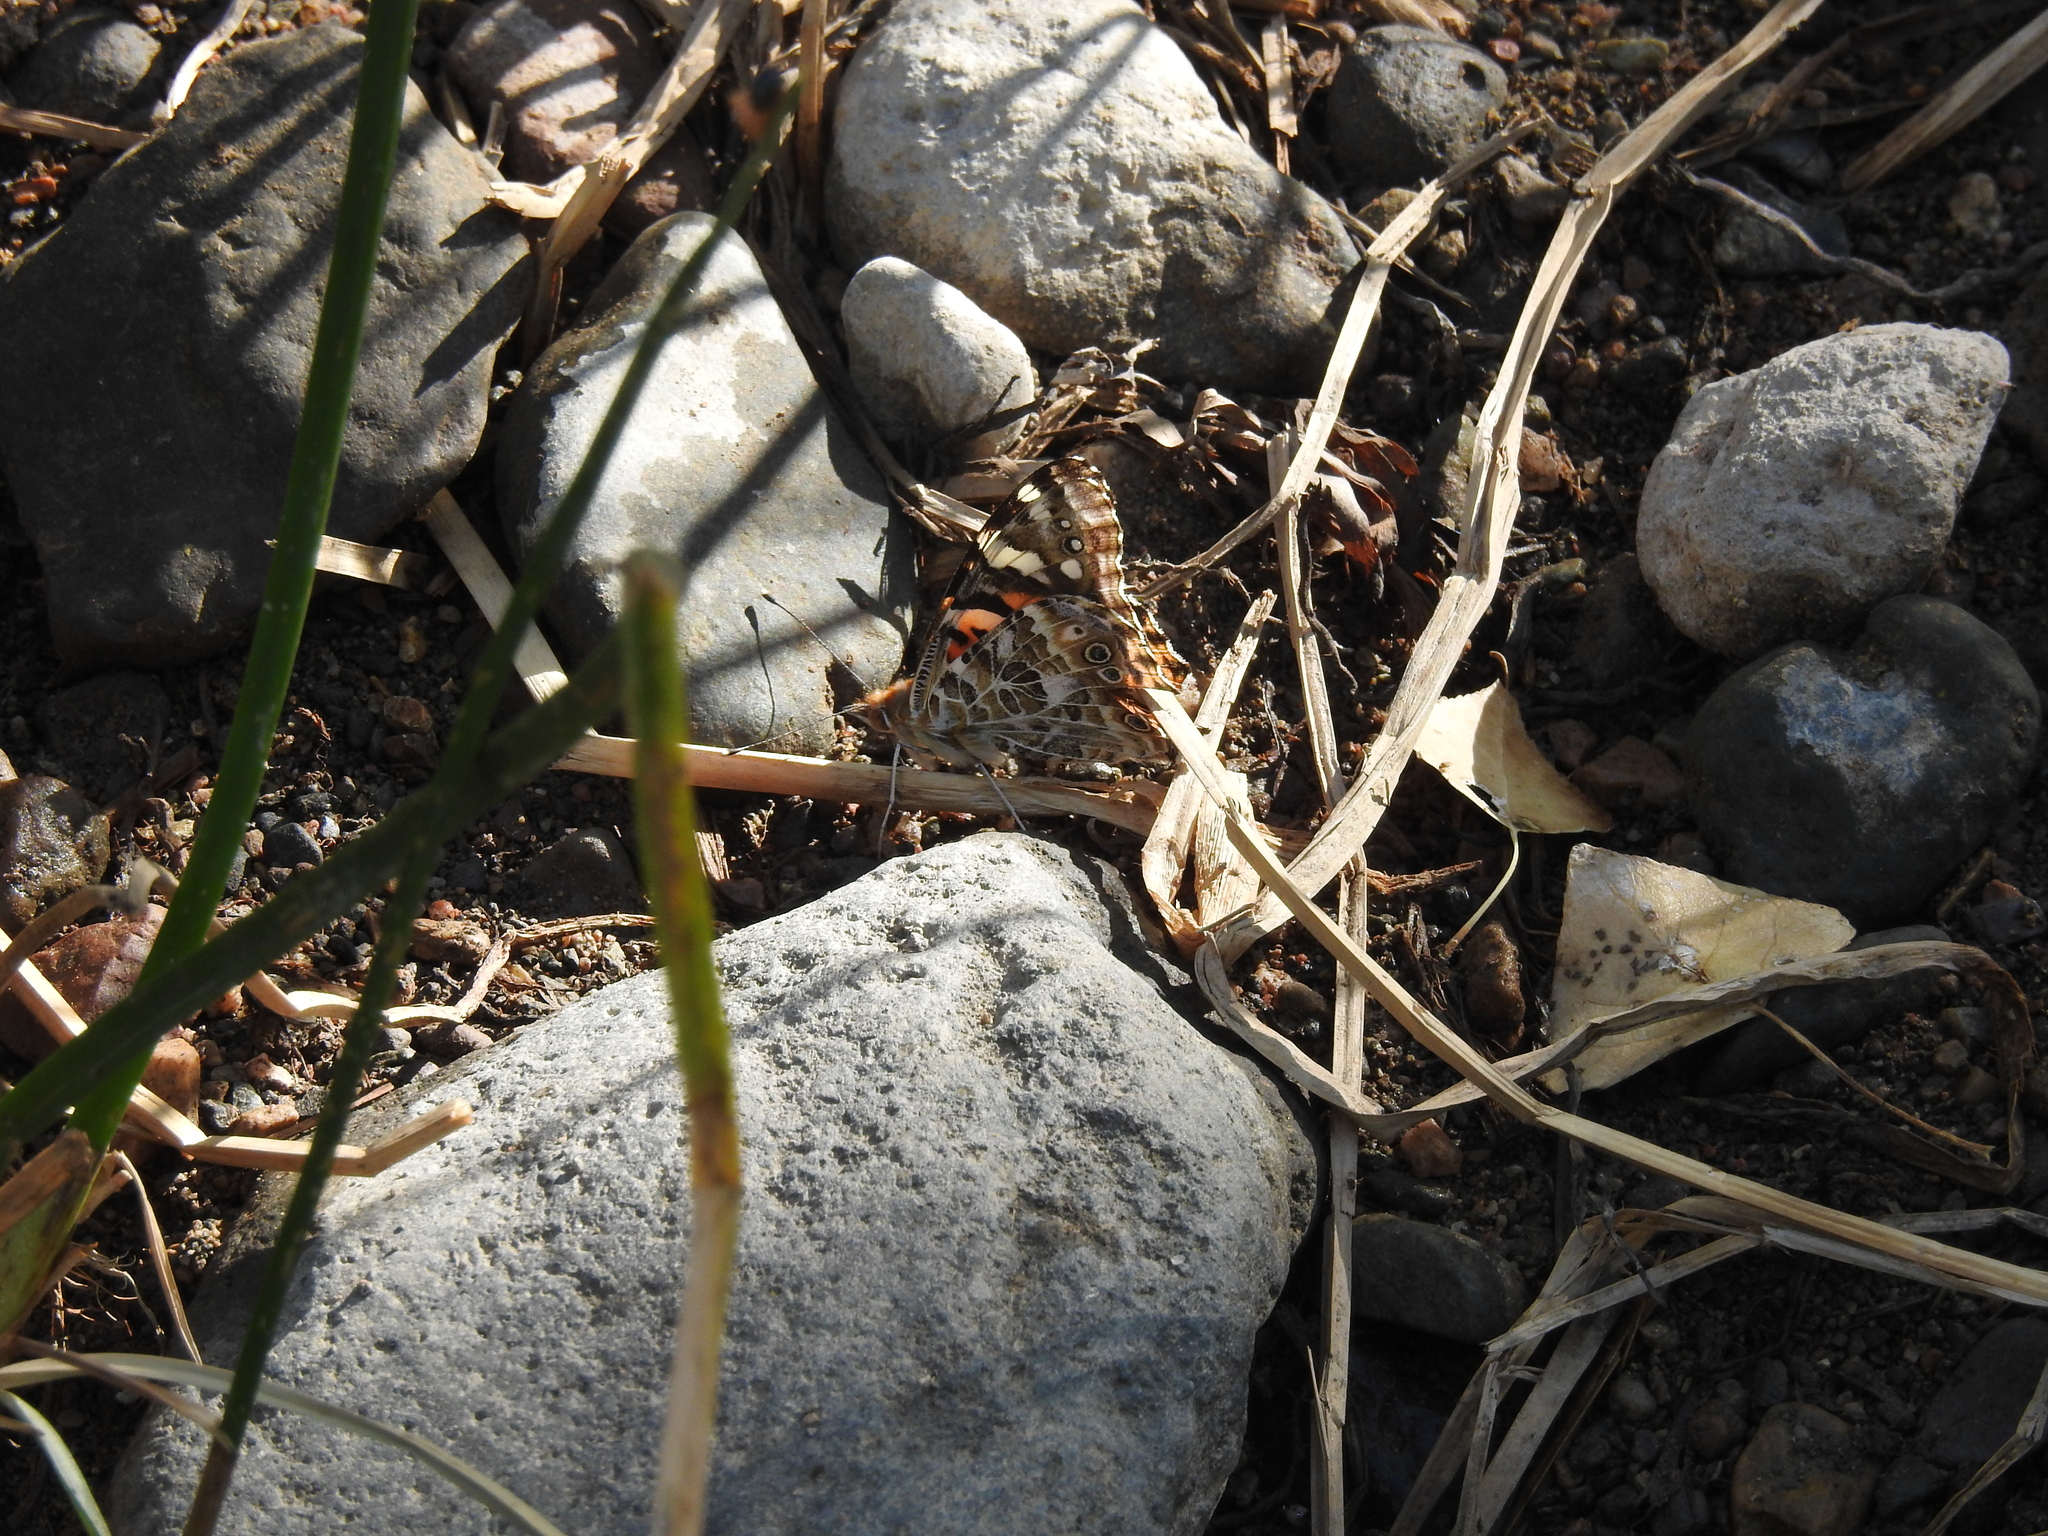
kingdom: Animalia
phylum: Arthropoda
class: Insecta
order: Lepidoptera
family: Nymphalidae
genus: Vanessa
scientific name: Vanessa cardui
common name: Painted lady
